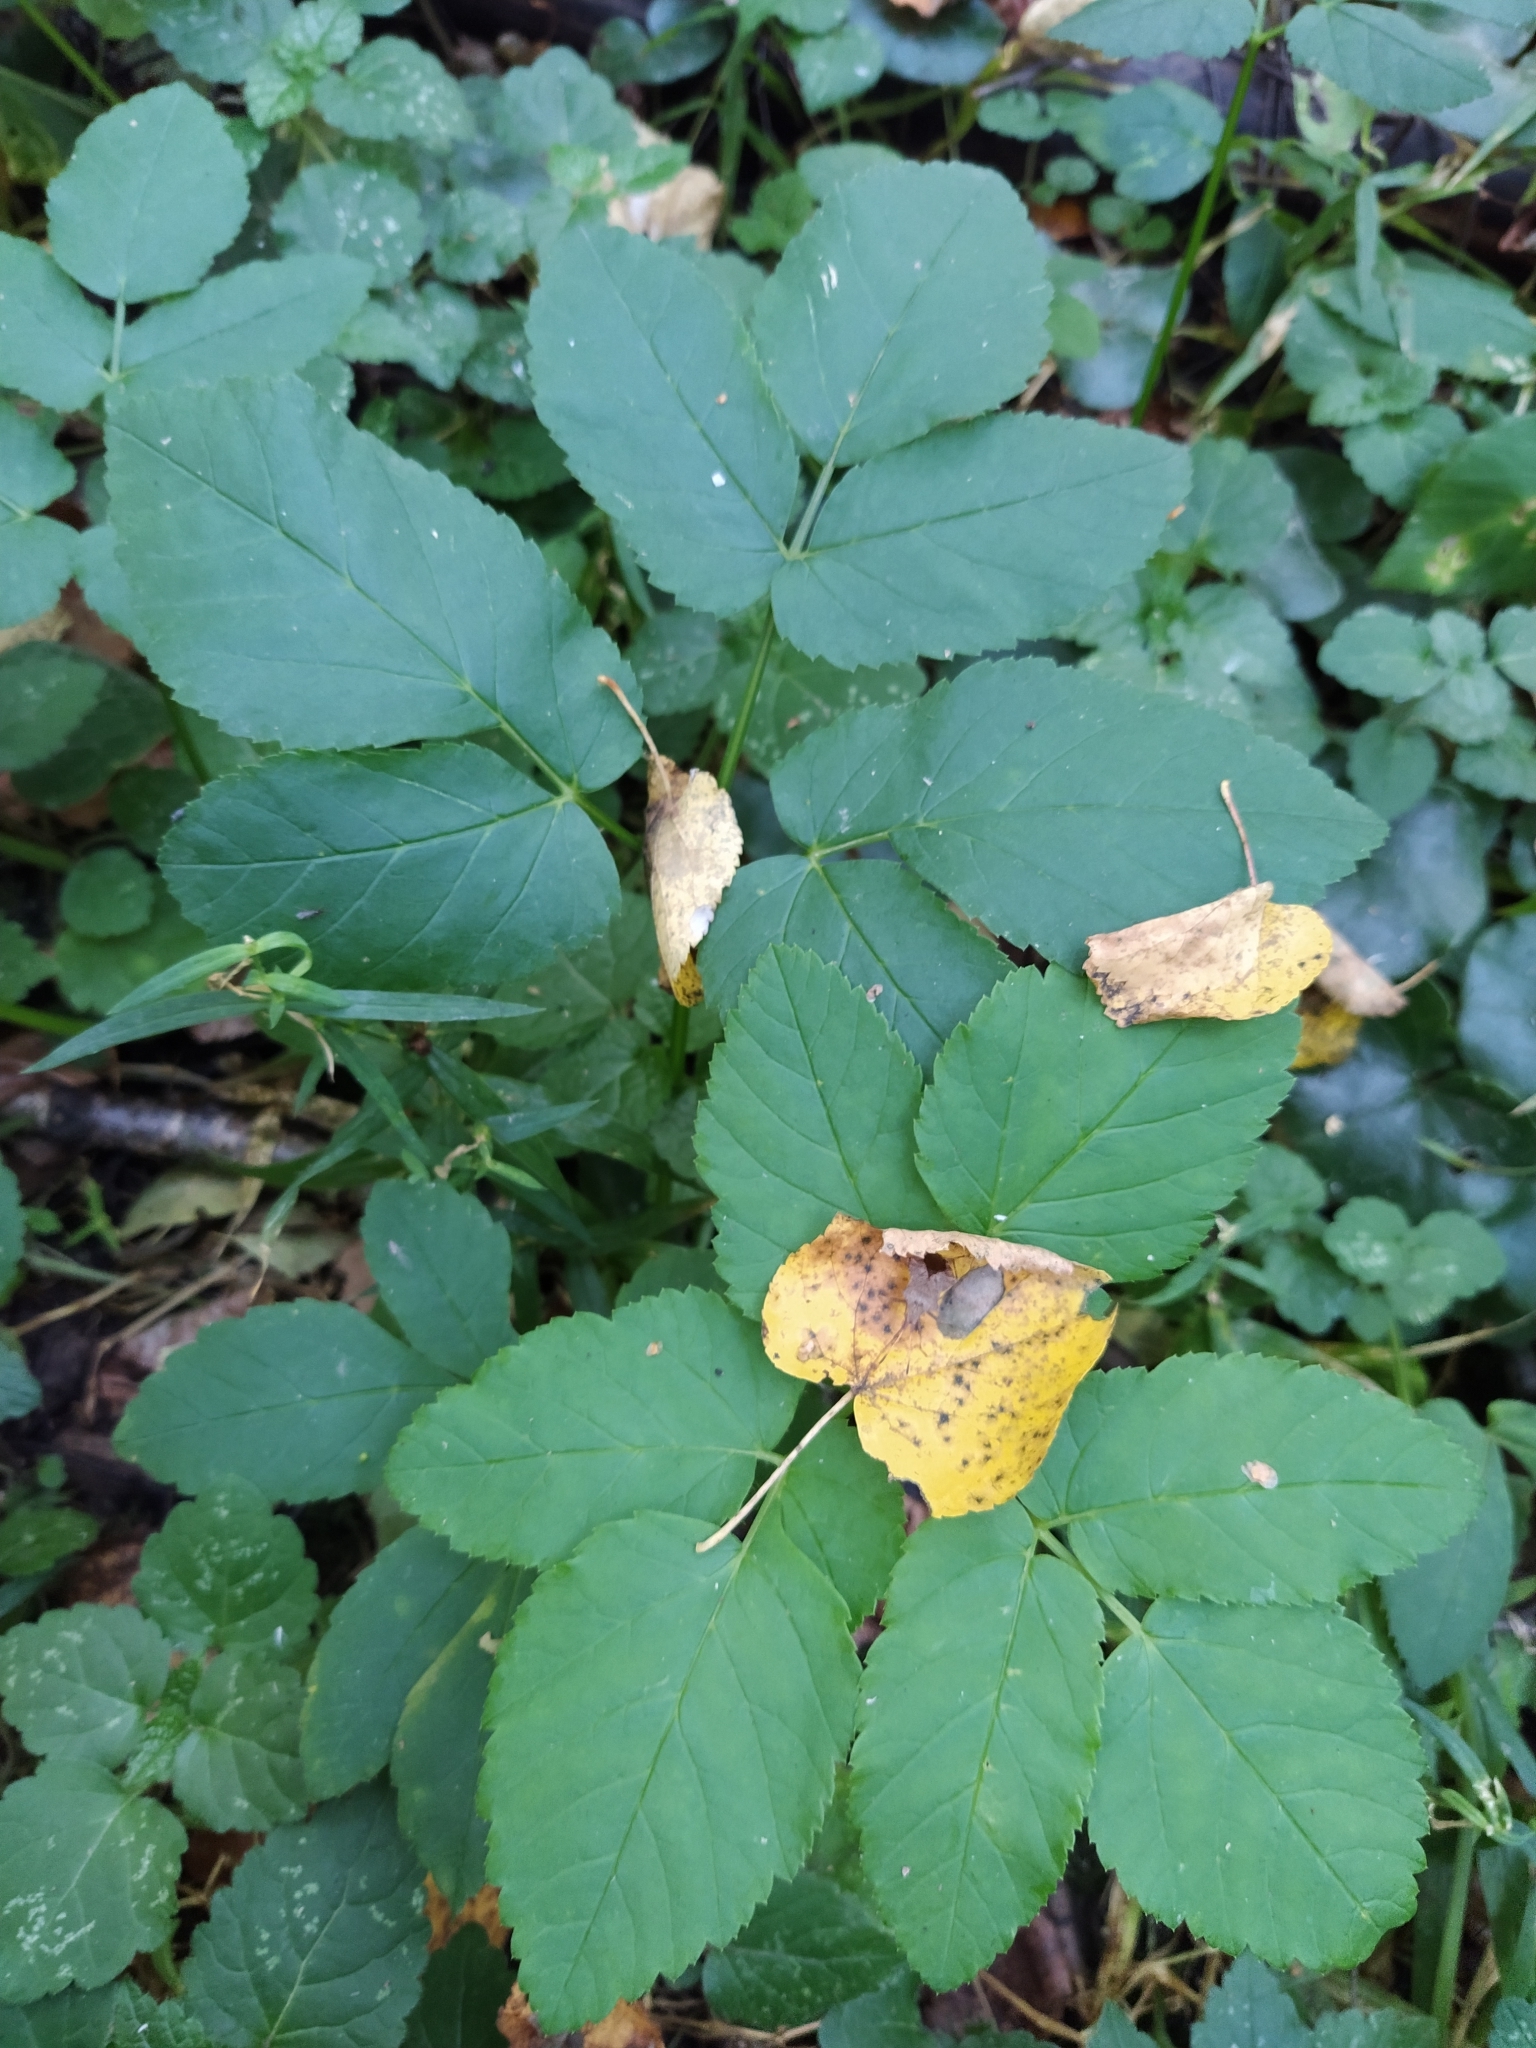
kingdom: Plantae
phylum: Tracheophyta
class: Magnoliopsida
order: Apiales
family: Apiaceae
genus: Aegopodium
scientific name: Aegopodium podagraria
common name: Ground-elder
